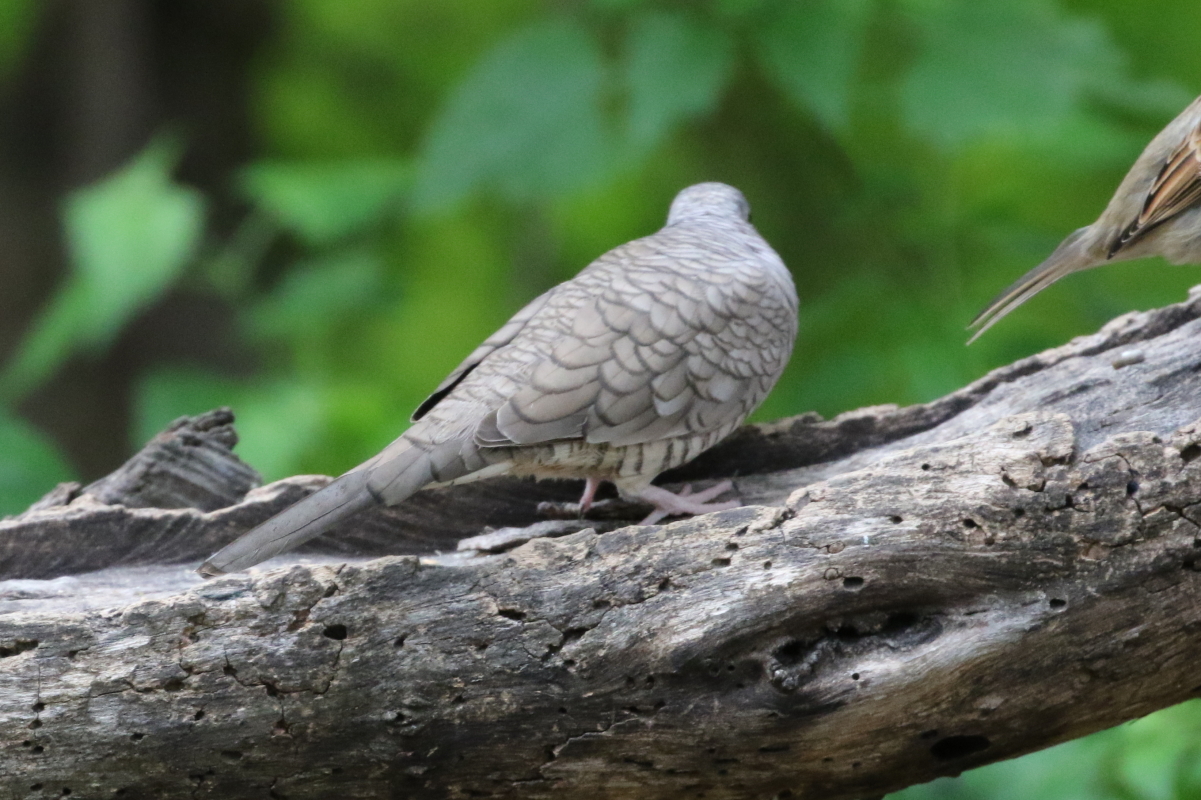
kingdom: Animalia
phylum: Chordata
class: Aves
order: Columbiformes
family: Columbidae
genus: Columbina
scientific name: Columbina inca
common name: Inca dove
